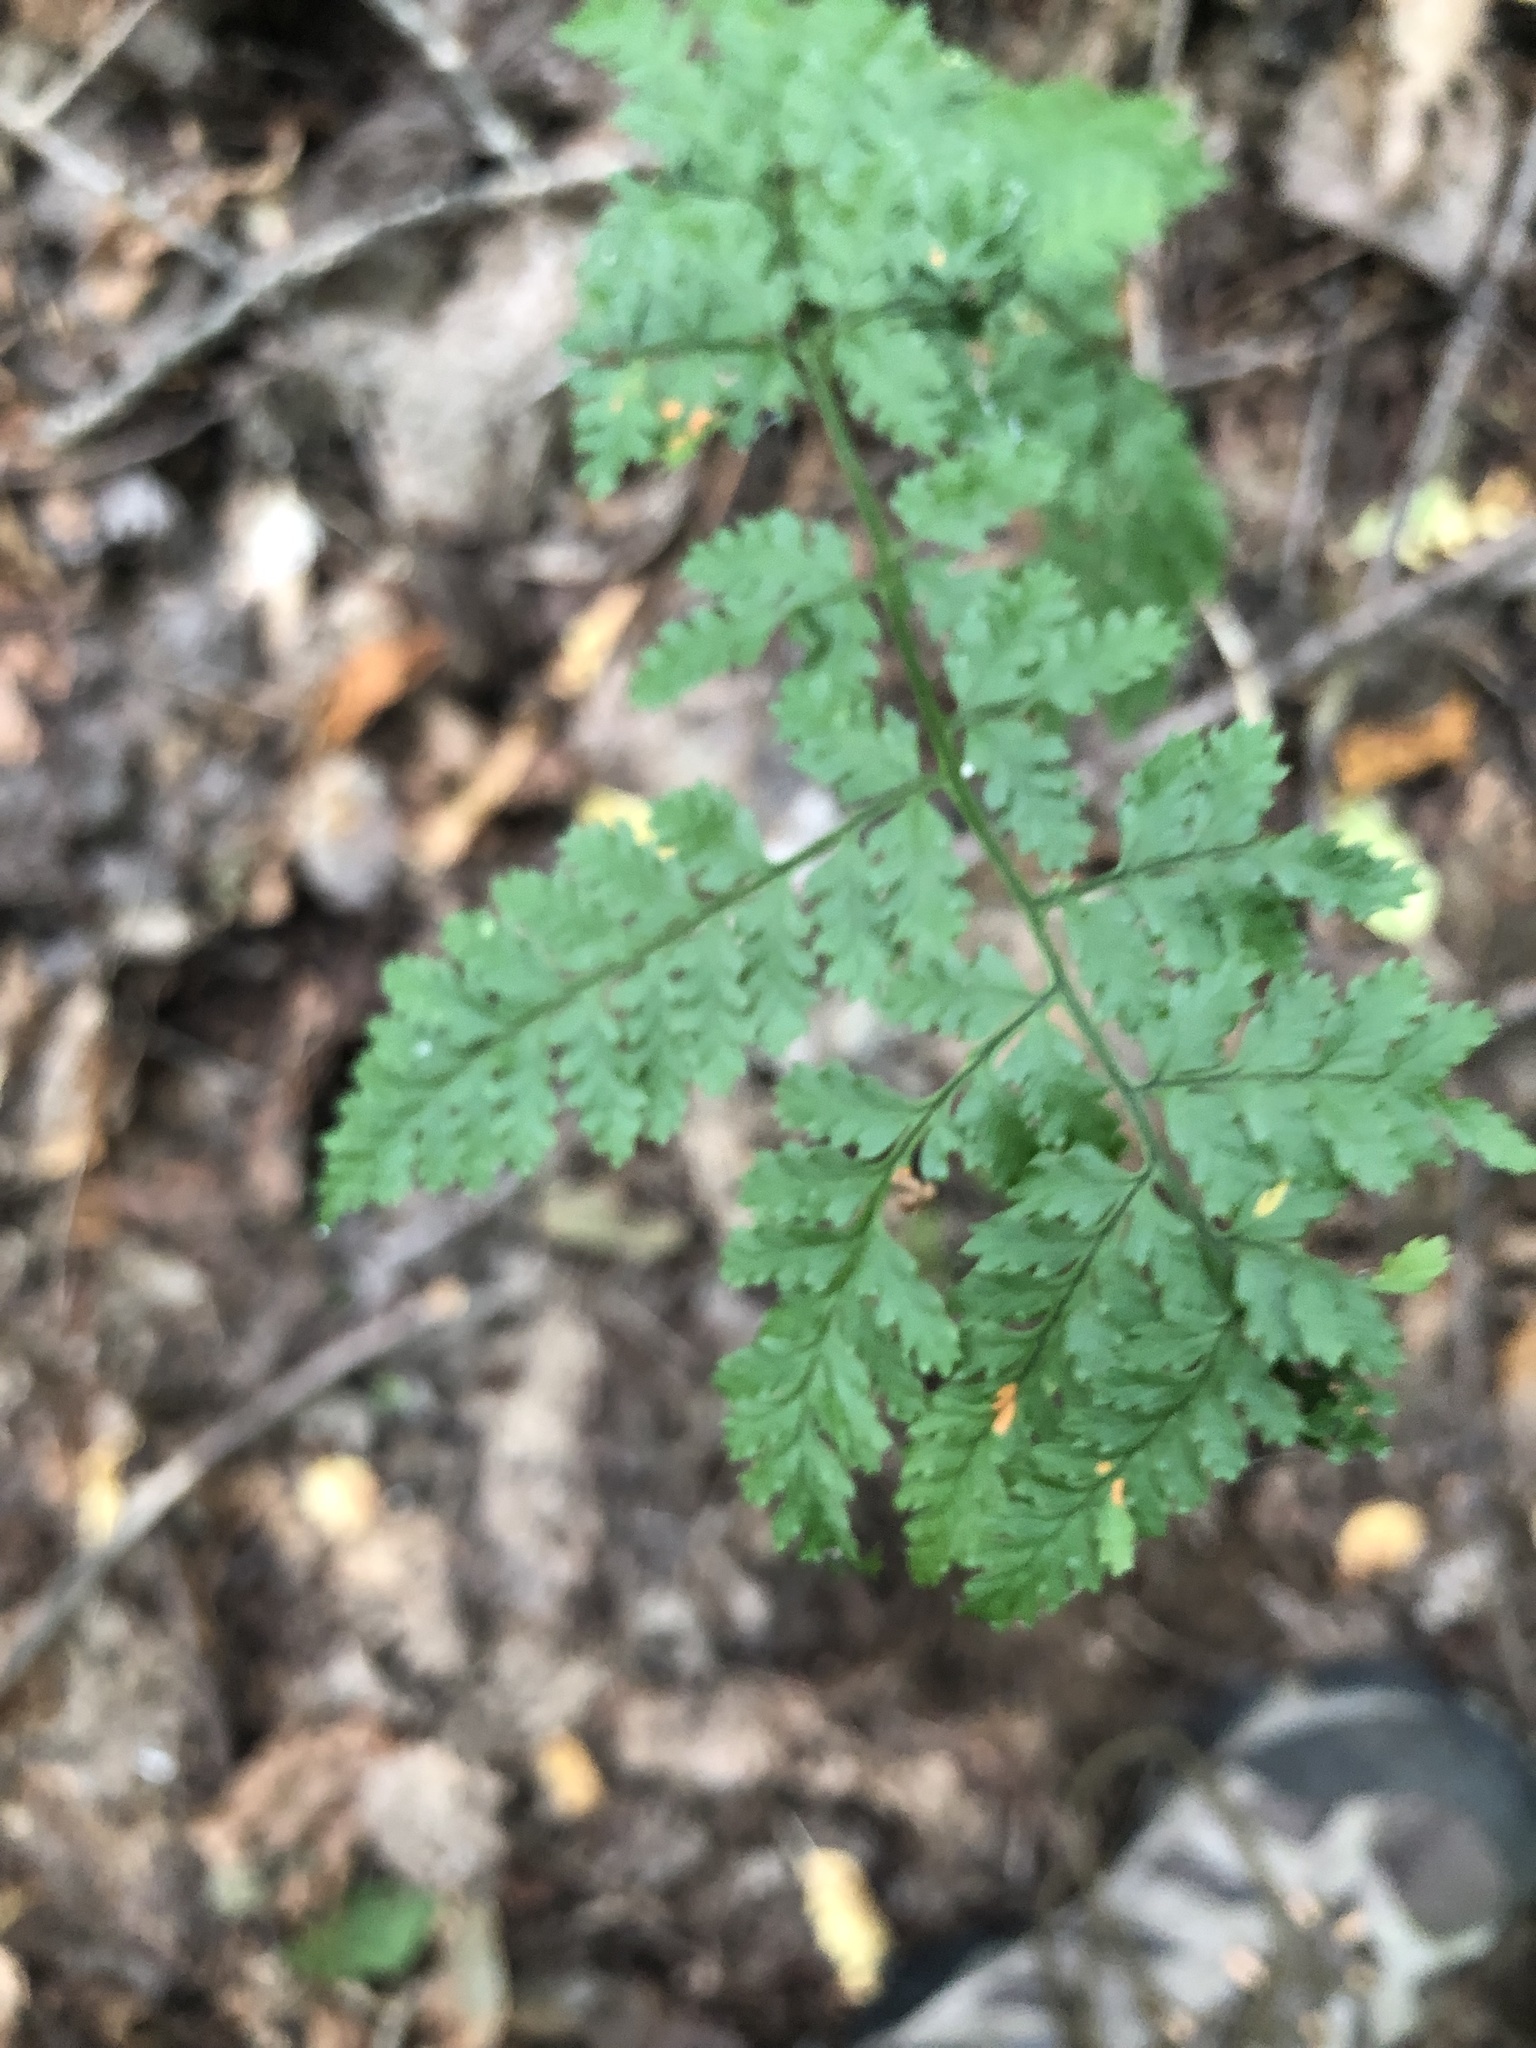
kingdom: Plantae
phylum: Tracheophyta
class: Polypodiopsida
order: Polypodiales
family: Dryopteridaceae
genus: Dryopteris
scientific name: Dryopteris intermedia
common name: Evergreen wood fern
